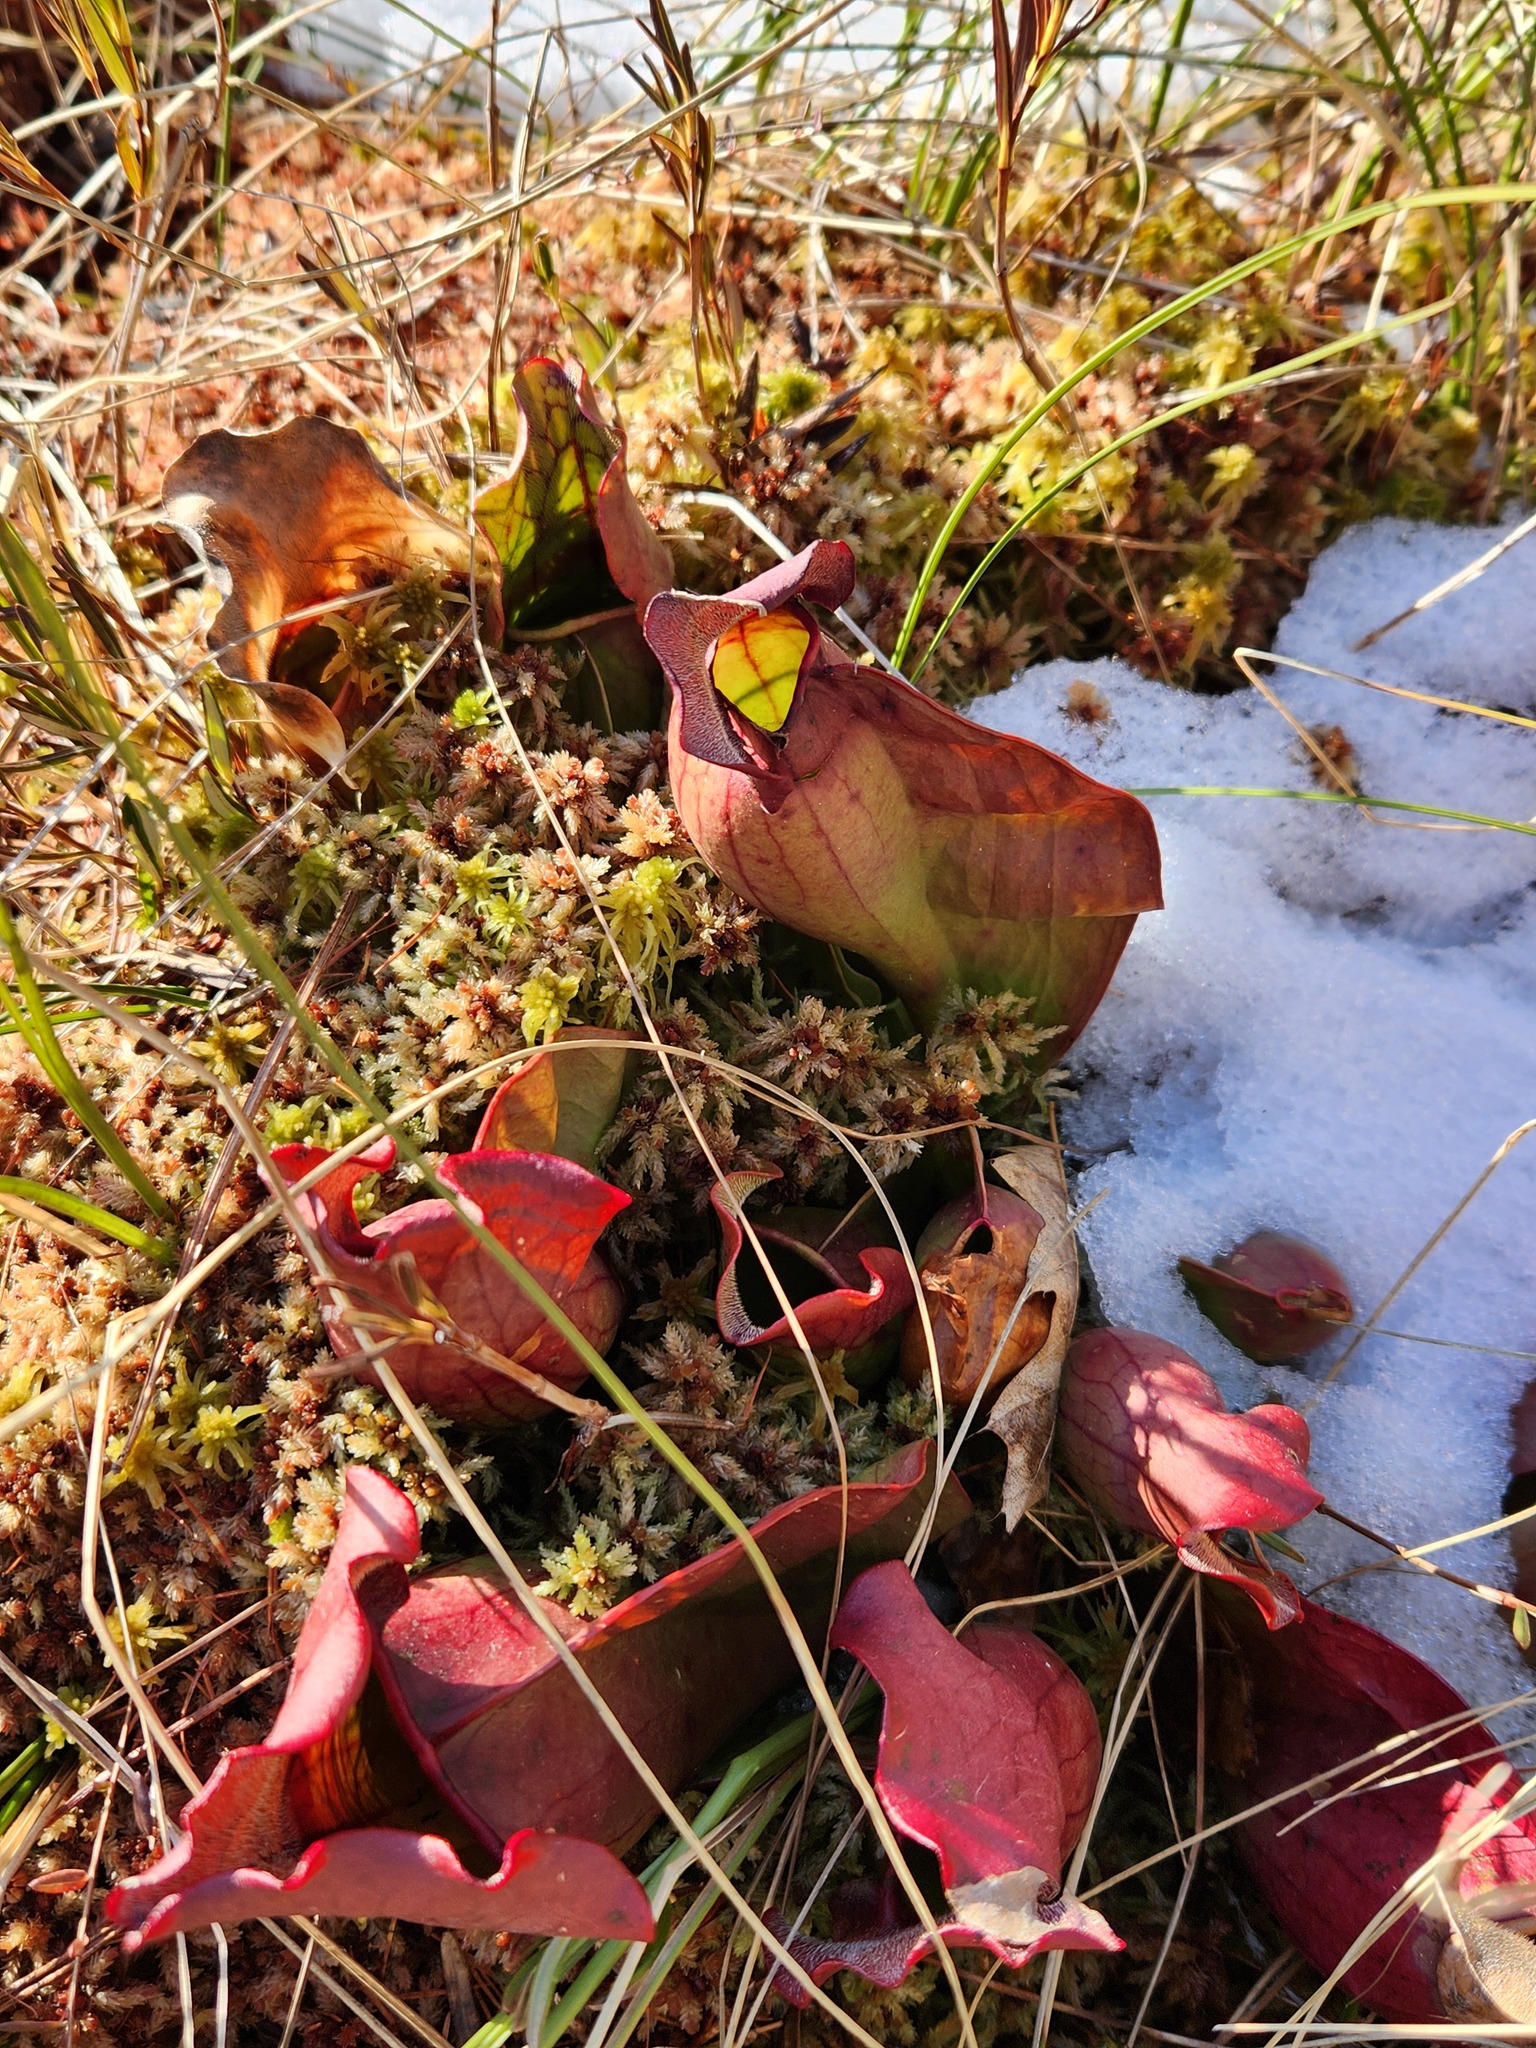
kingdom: Plantae
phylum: Tracheophyta
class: Magnoliopsida
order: Ericales
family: Sarraceniaceae
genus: Sarracenia
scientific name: Sarracenia purpurea
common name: Pitcherplant
